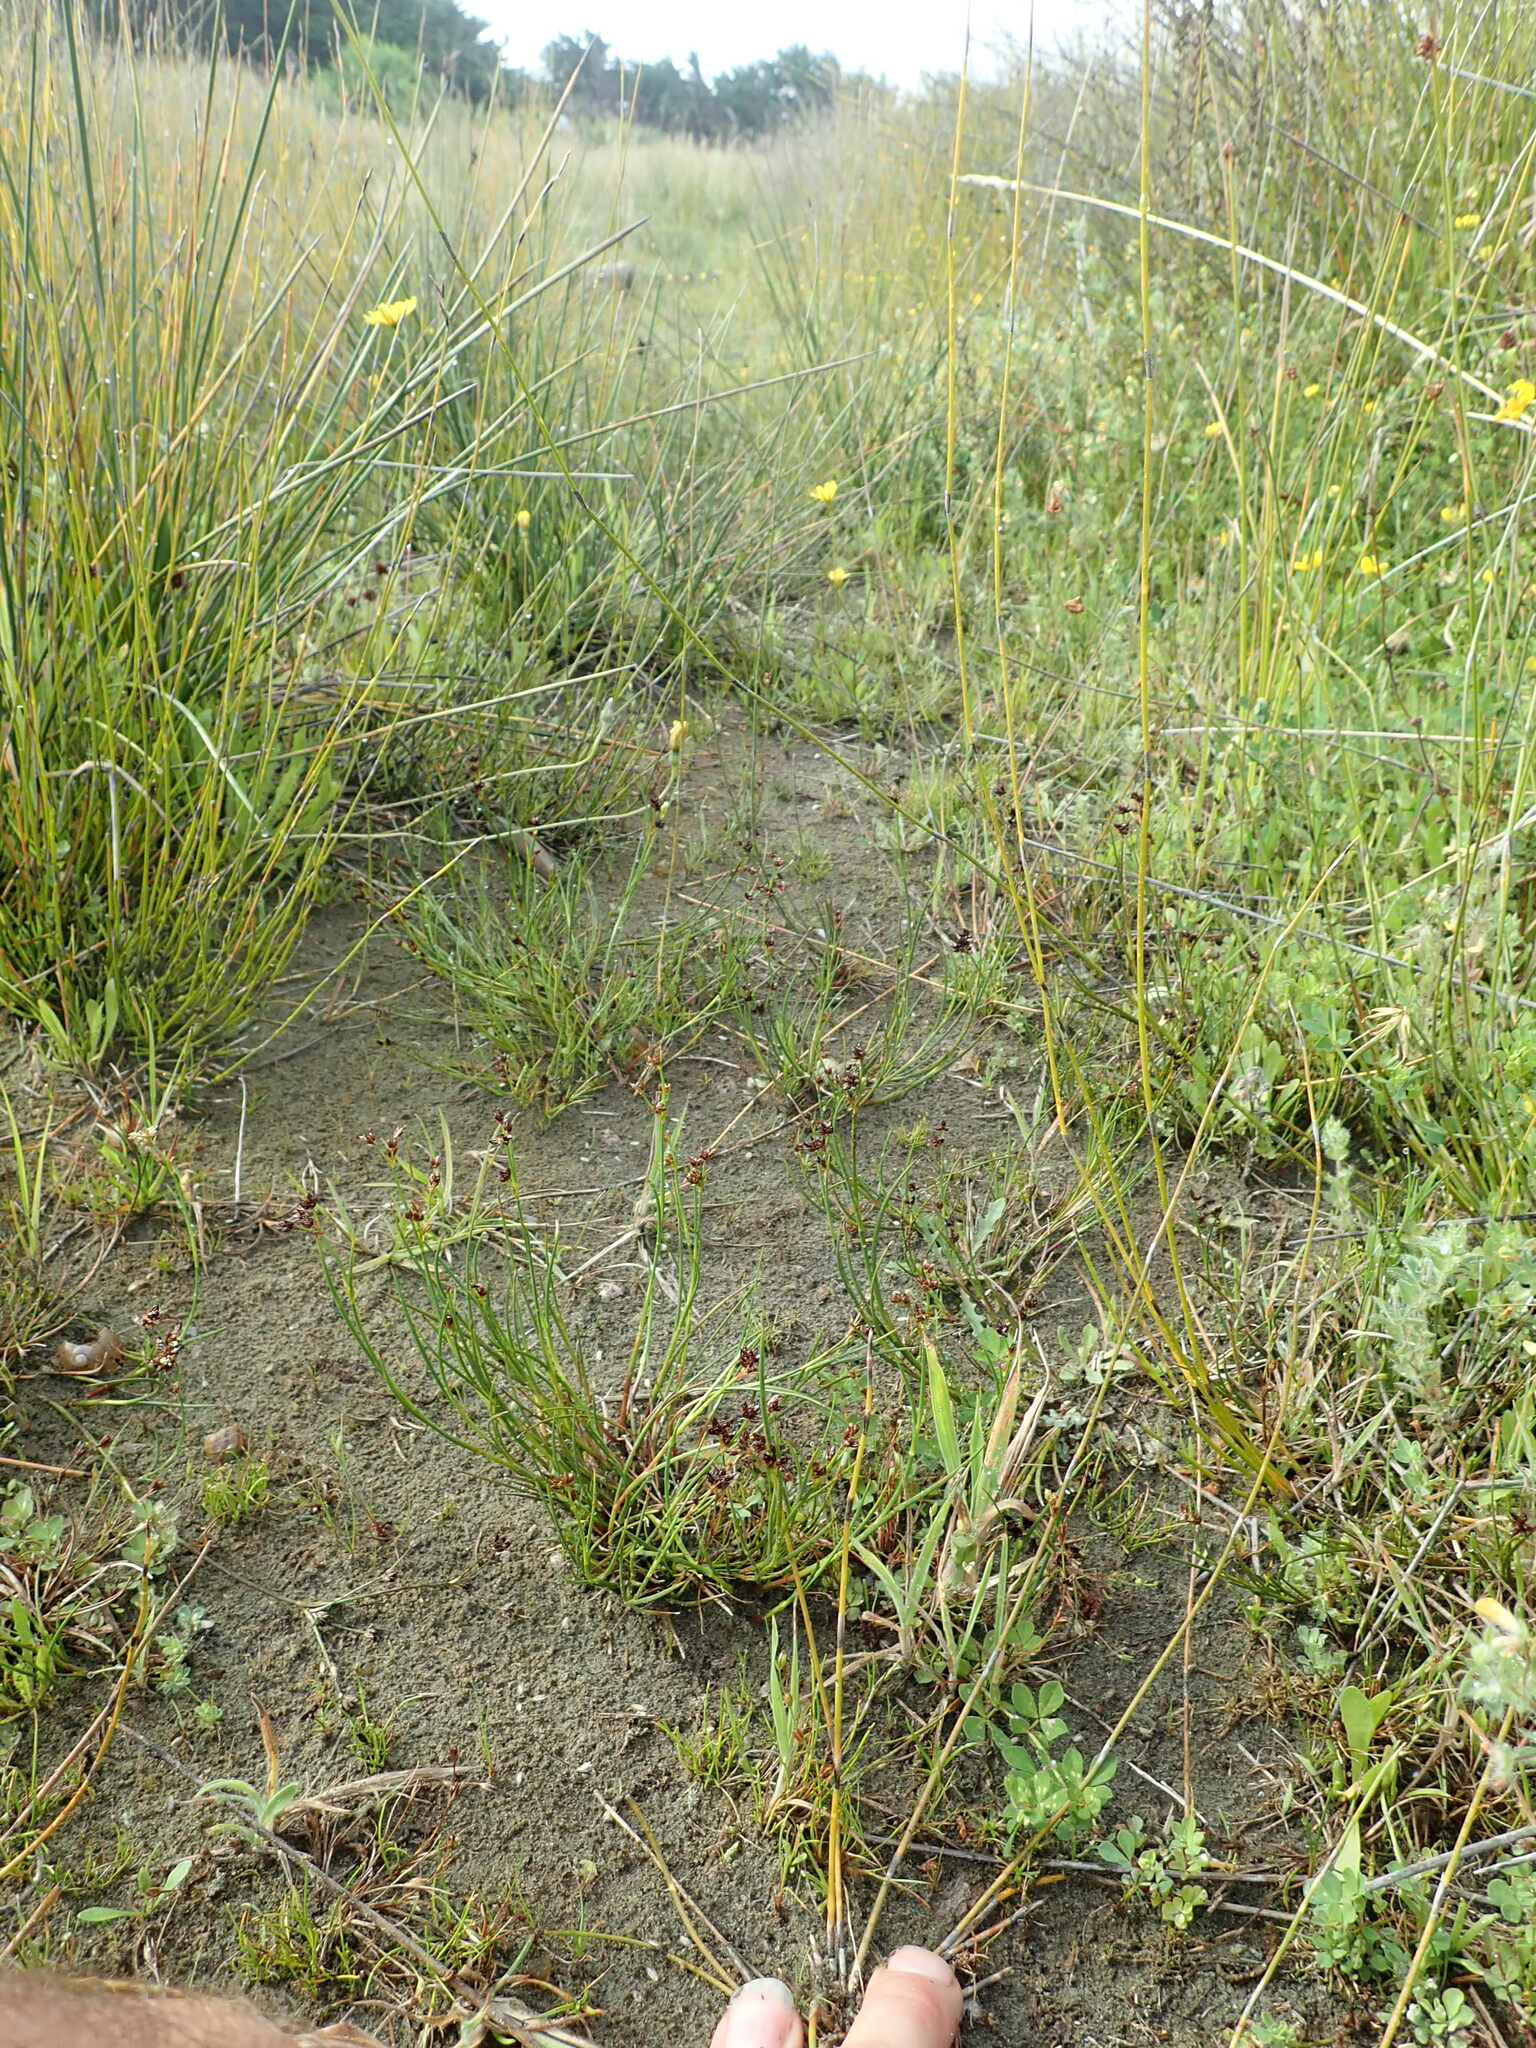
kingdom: Plantae
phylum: Tracheophyta
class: Liliopsida
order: Poales
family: Juncaceae
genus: Juncus
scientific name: Juncus articulatus
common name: Jointed rush
